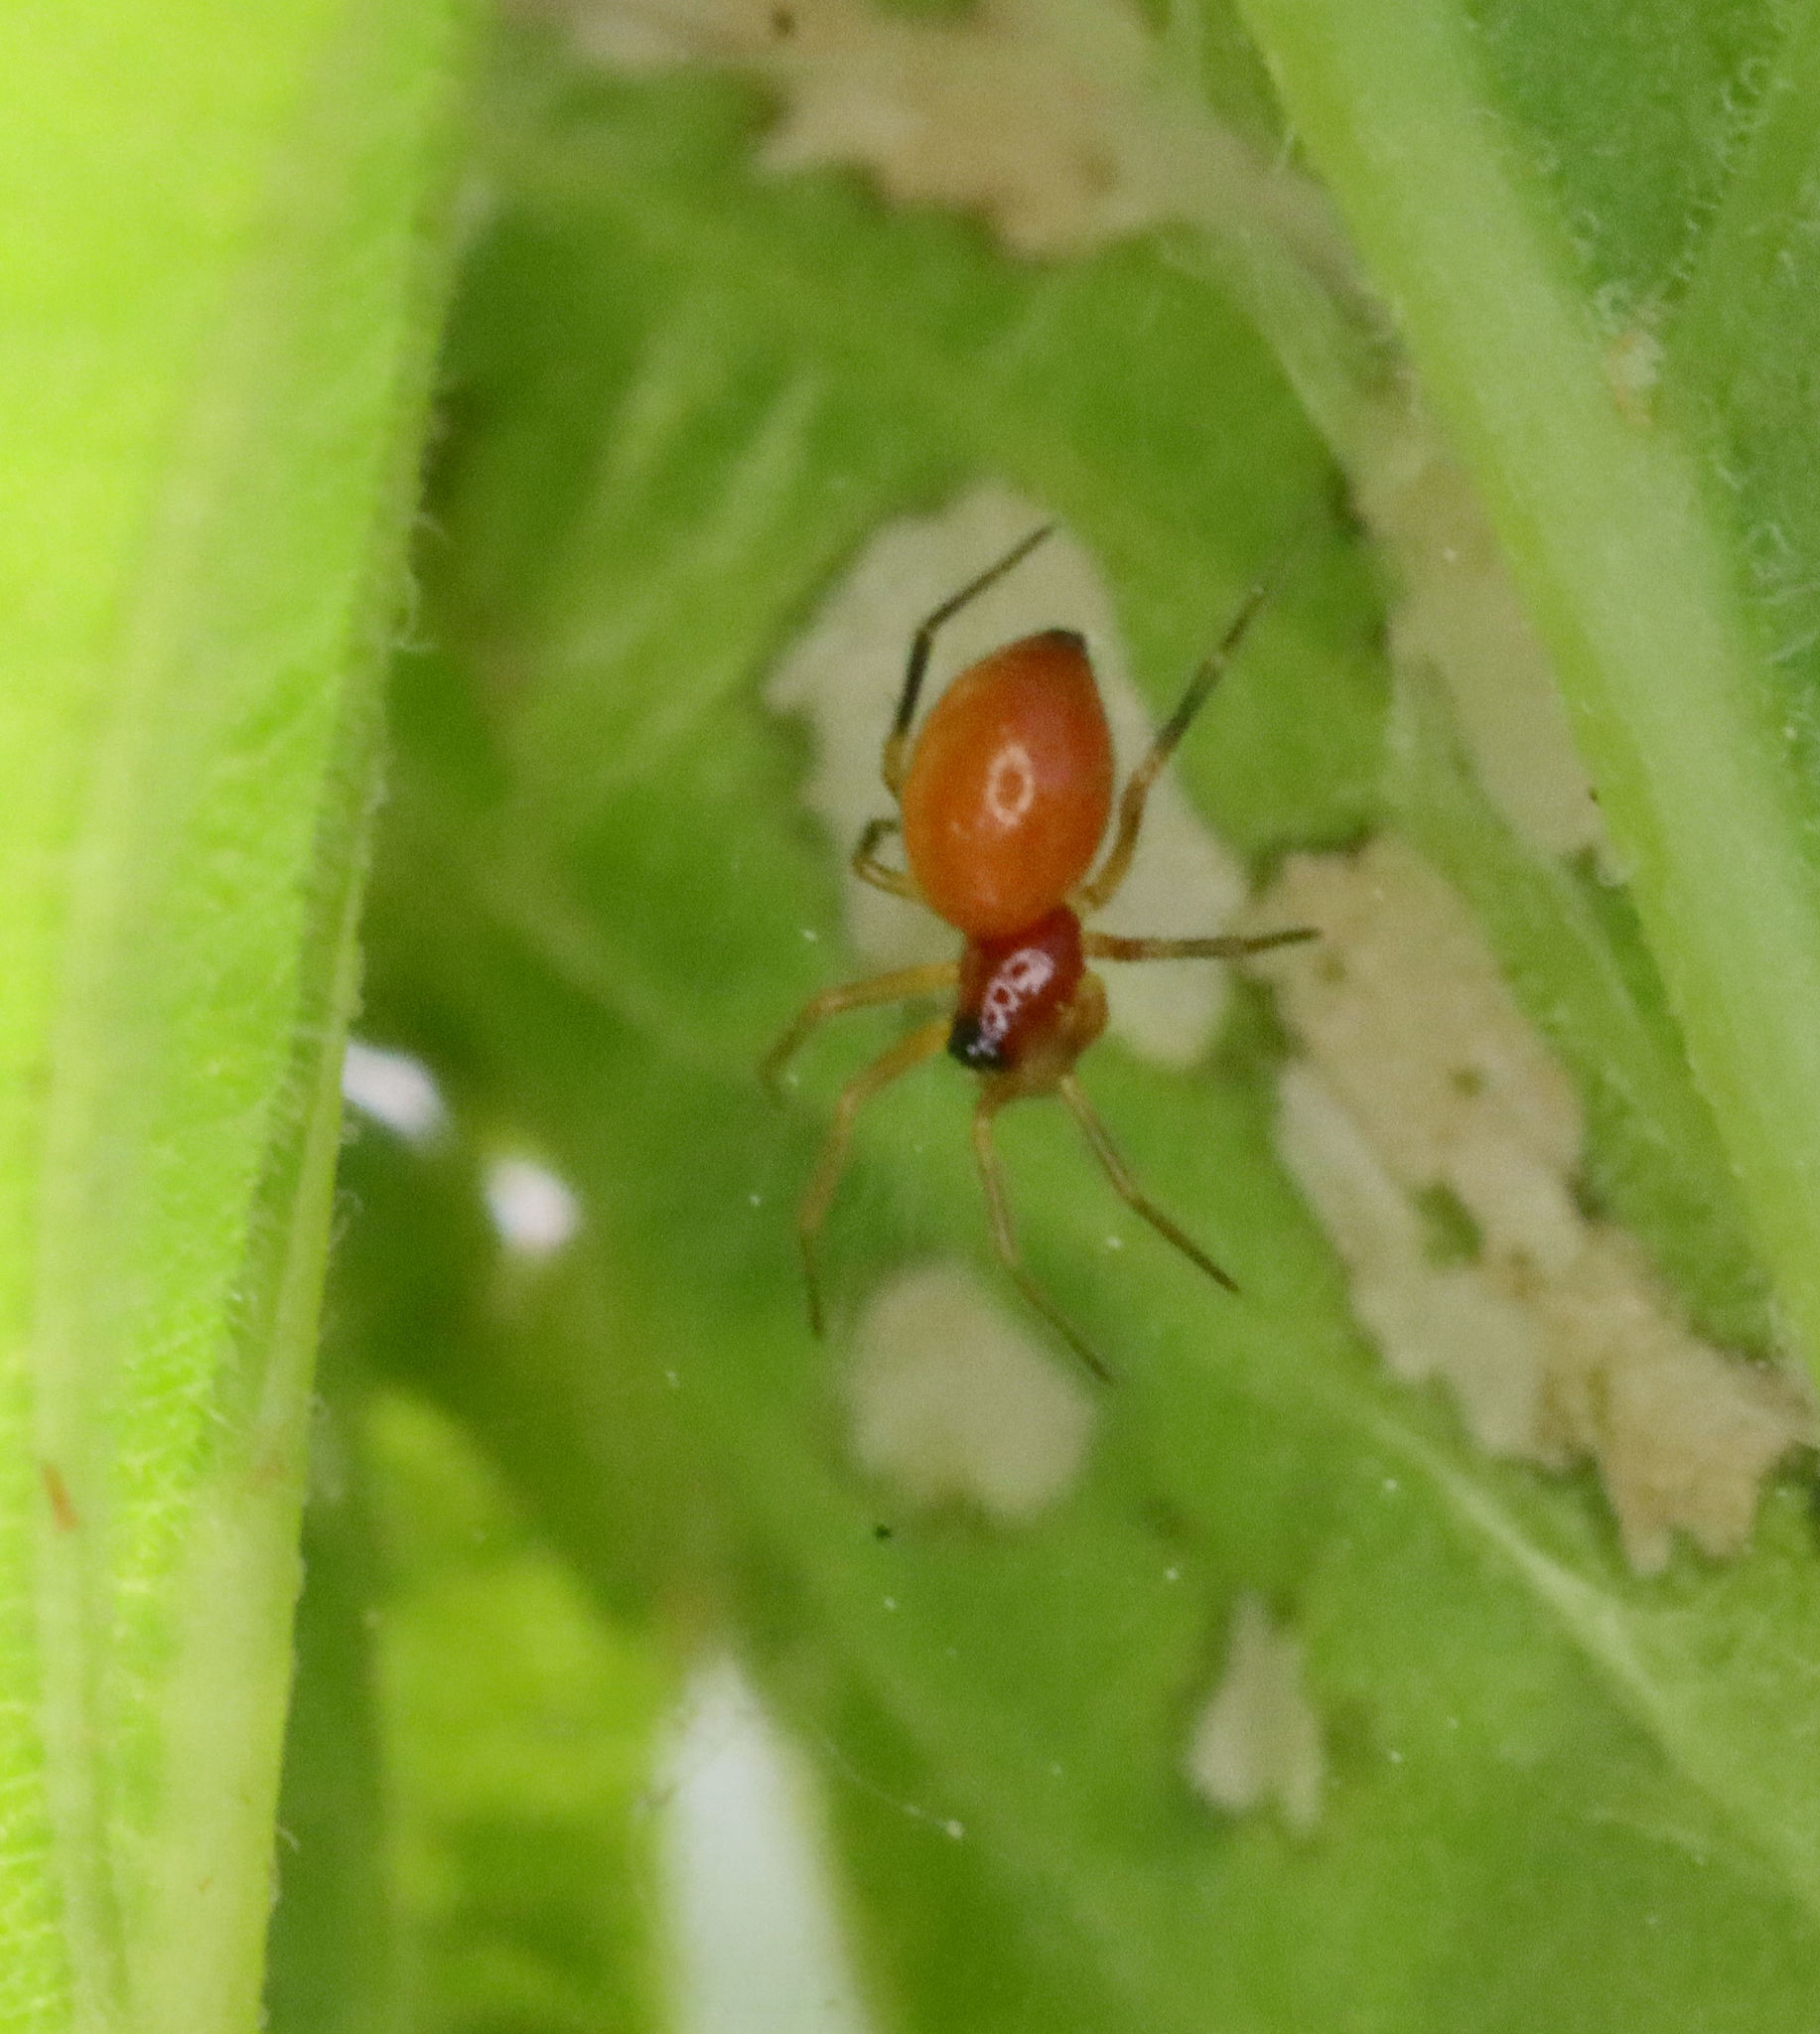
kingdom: Animalia
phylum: Arthropoda
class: Arachnida
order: Araneae
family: Linyphiidae
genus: Florinda
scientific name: Florinda coccinea
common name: Black-tailed red sheetweaver
